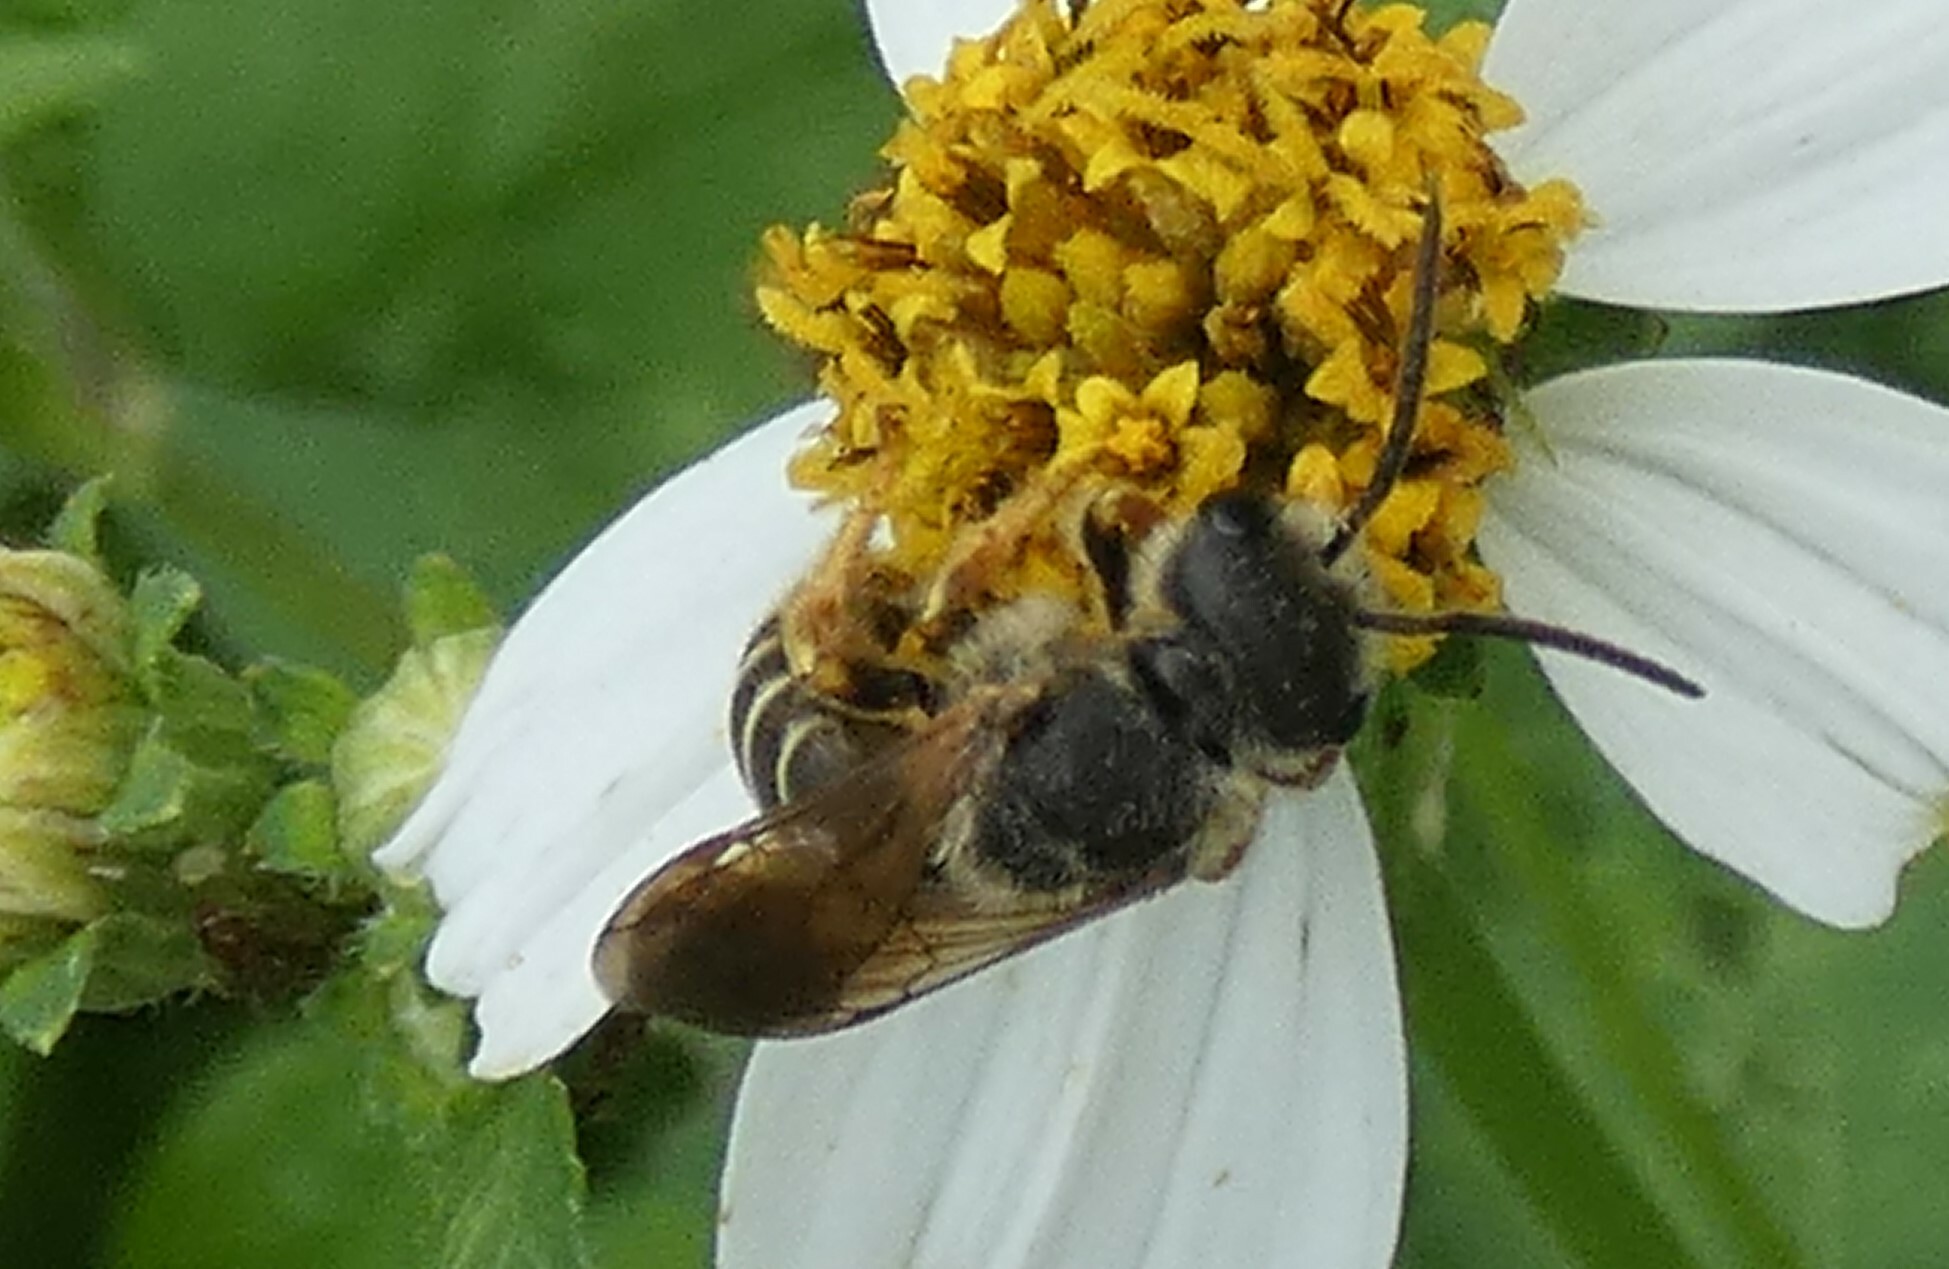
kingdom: Animalia
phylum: Arthropoda
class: Insecta
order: Hymenoptera
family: Halictidae
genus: Halictus
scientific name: Halictus poeyi
